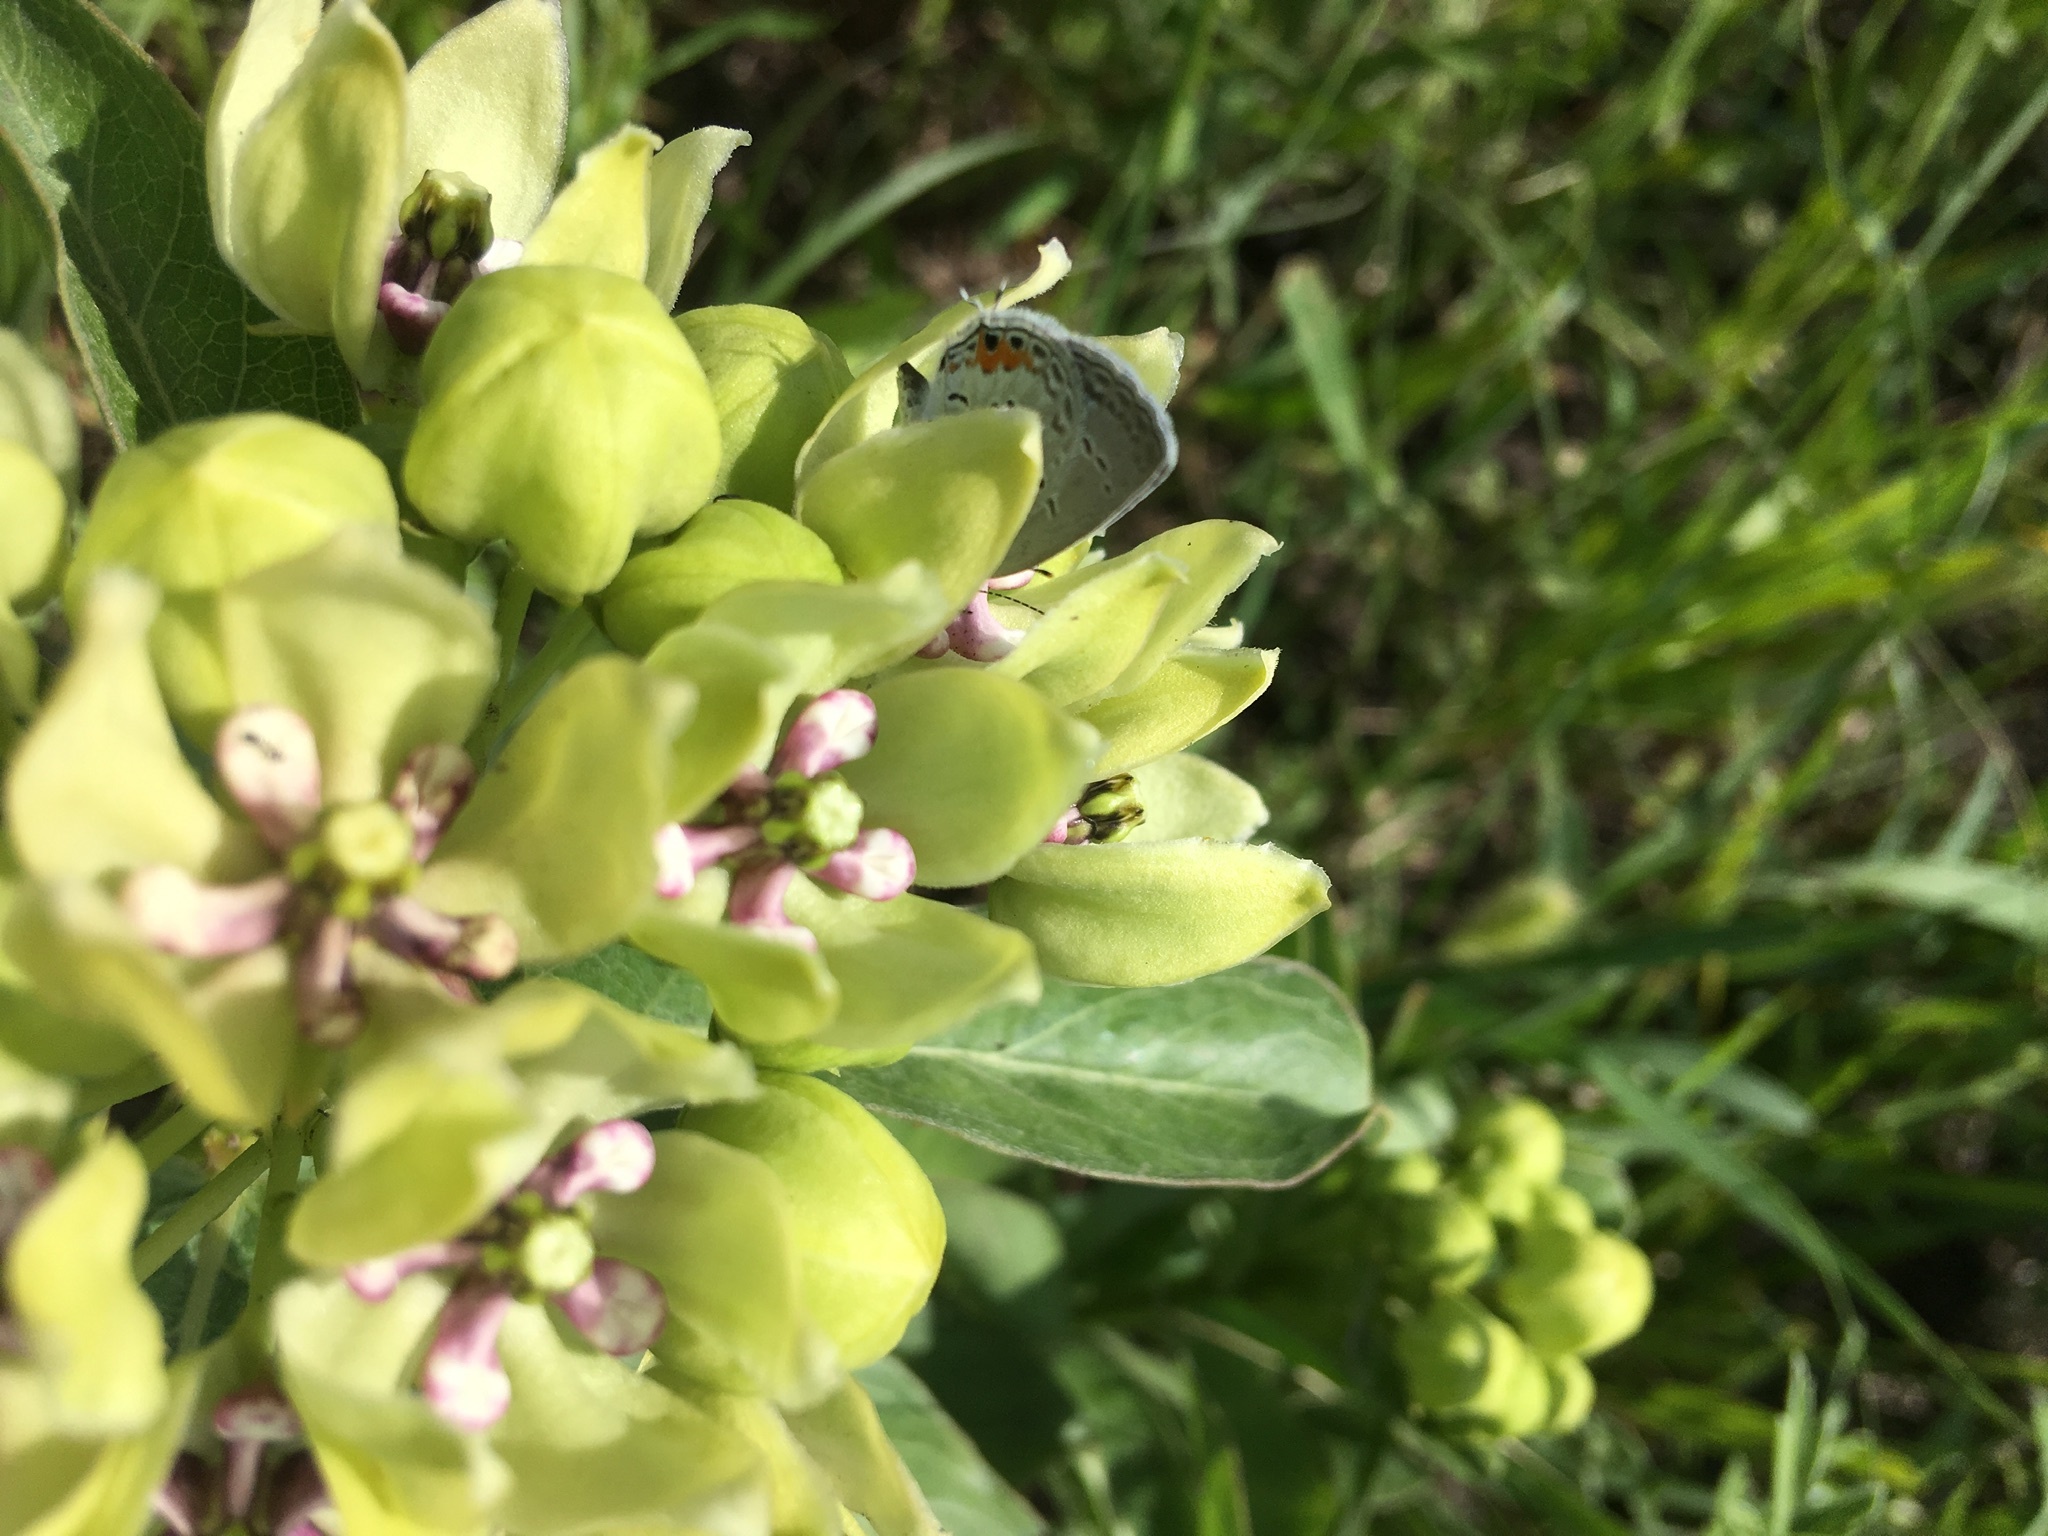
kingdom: Animalia
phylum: Arthropoda
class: Insecta
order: Lepidoptera
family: Lycaenidae
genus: Elkalyce
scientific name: Elkalyce comyntas
